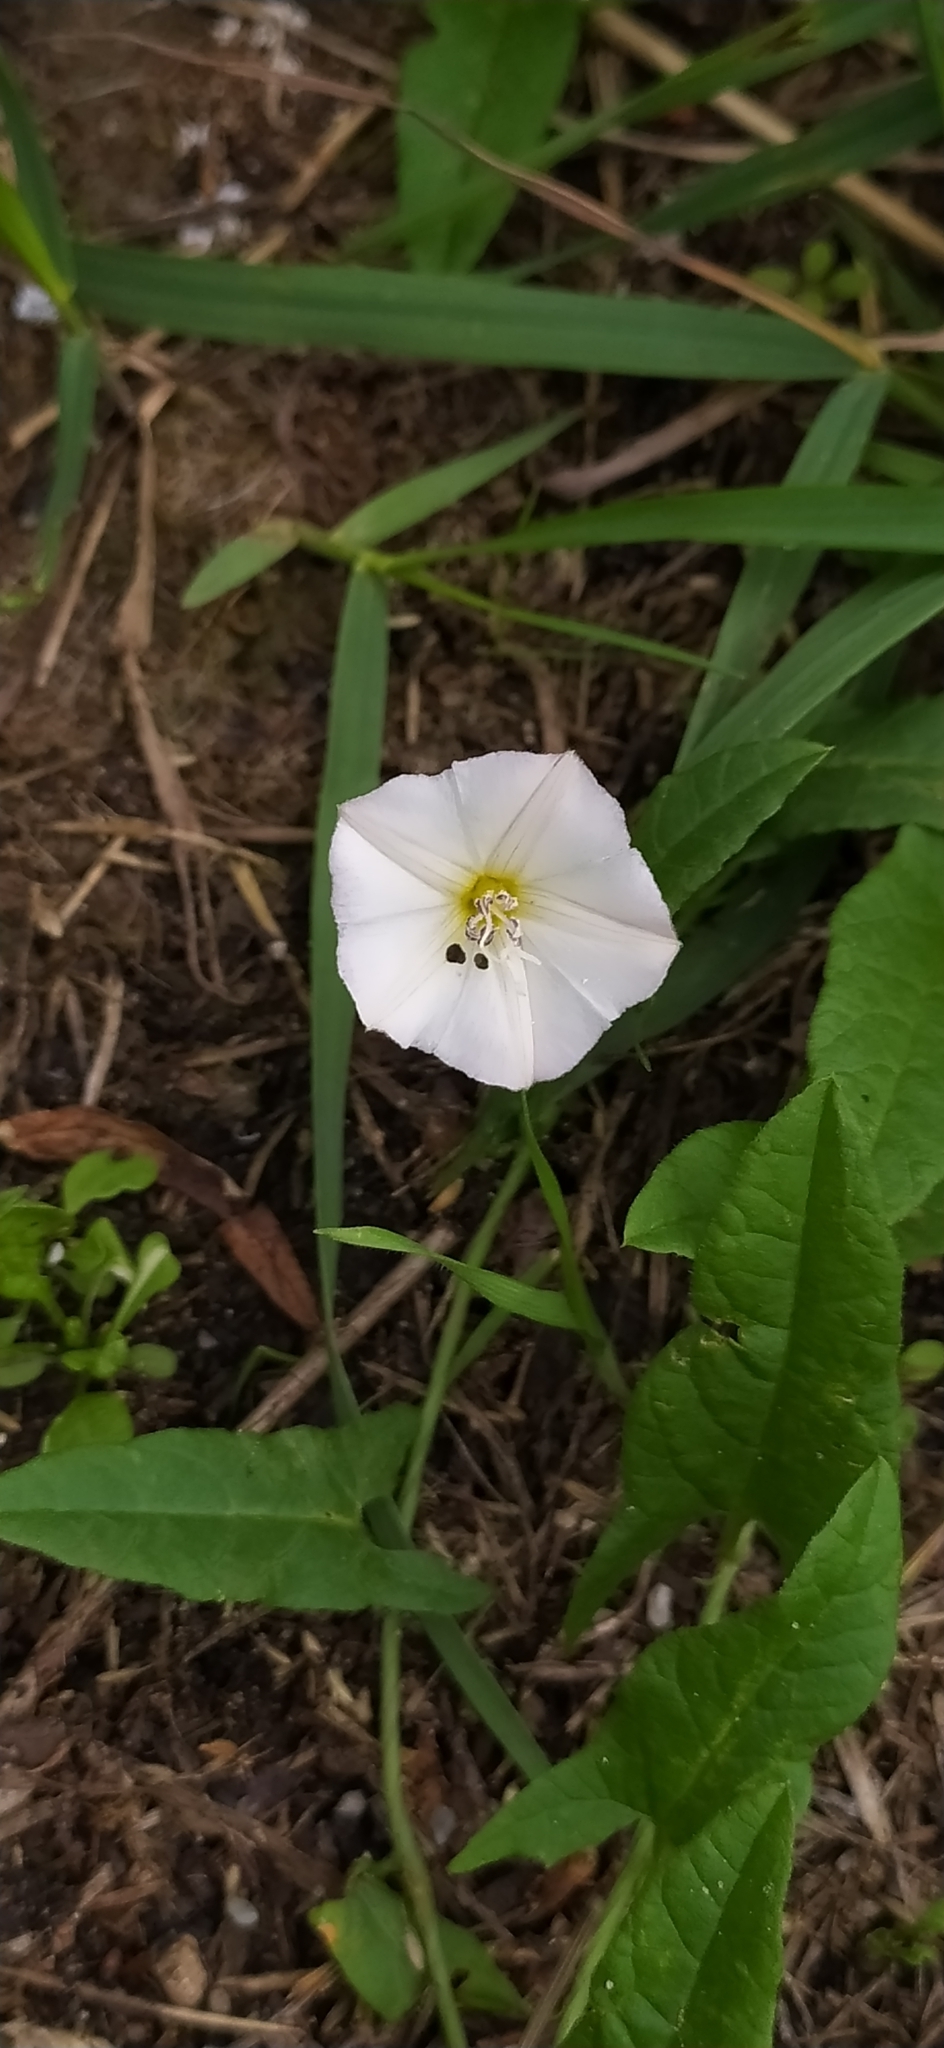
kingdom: Plantae
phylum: Tracheophyta
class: Magnoliopsida
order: Solanales
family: Convolvulaceae
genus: Convolvulus
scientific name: Convolvulus arvensis
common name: Field bindweed
